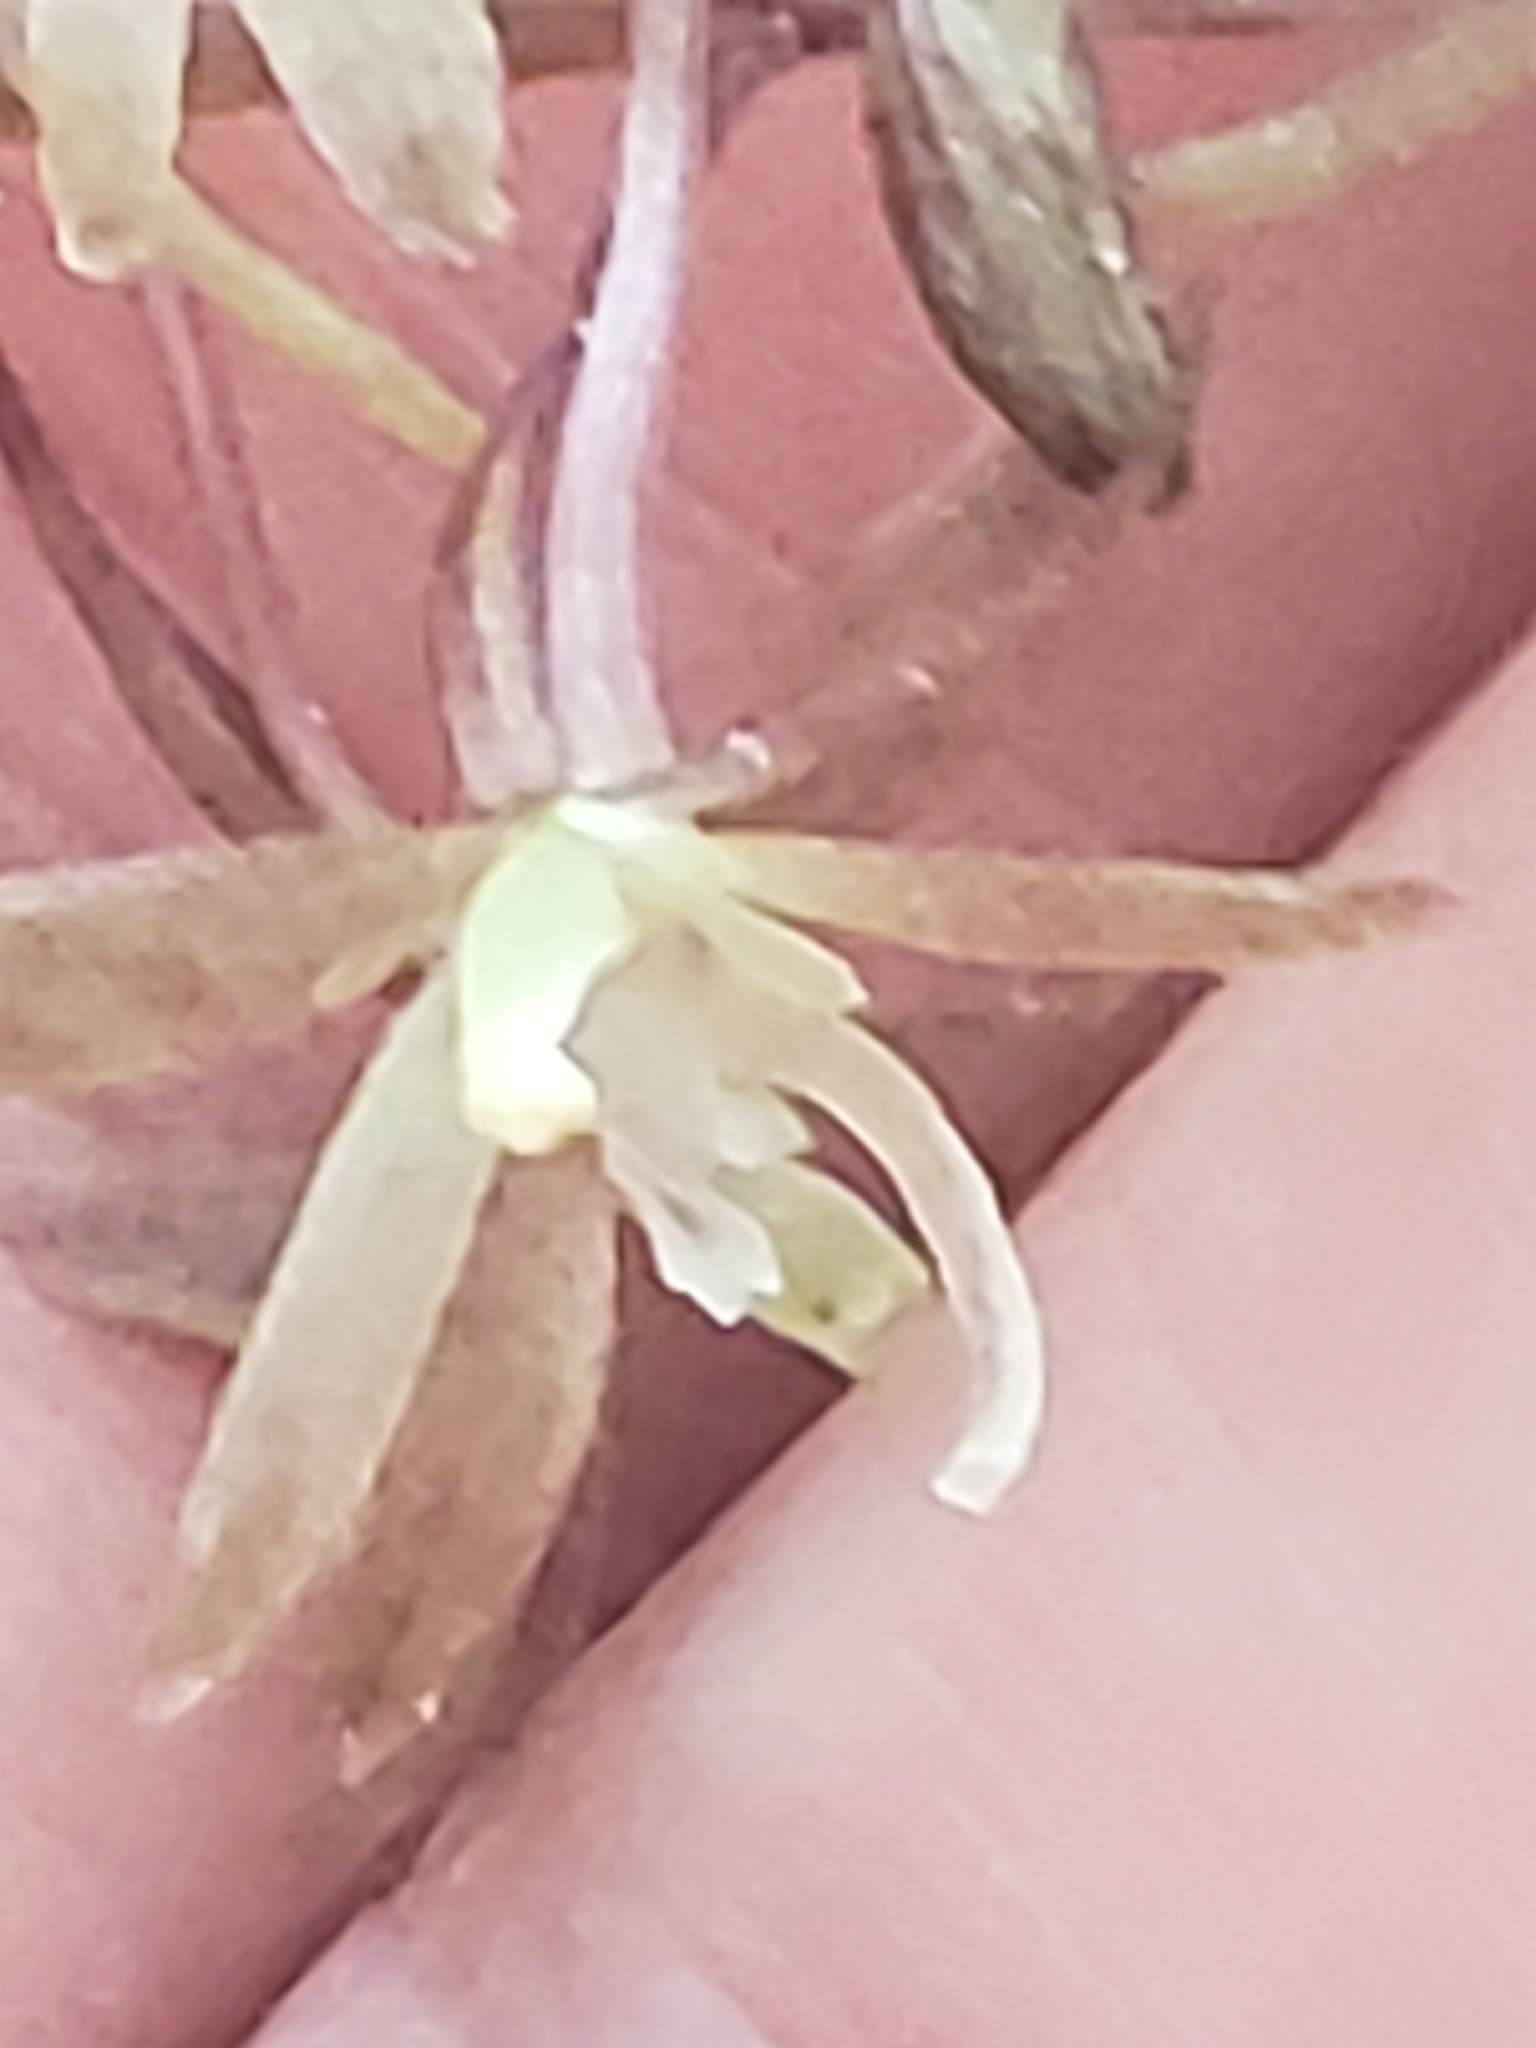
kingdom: Plantae
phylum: Tracheophyta
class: Liliopsida
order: Asparagales
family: Orchidaceae
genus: Tipularia
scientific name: Tipularia discolor
